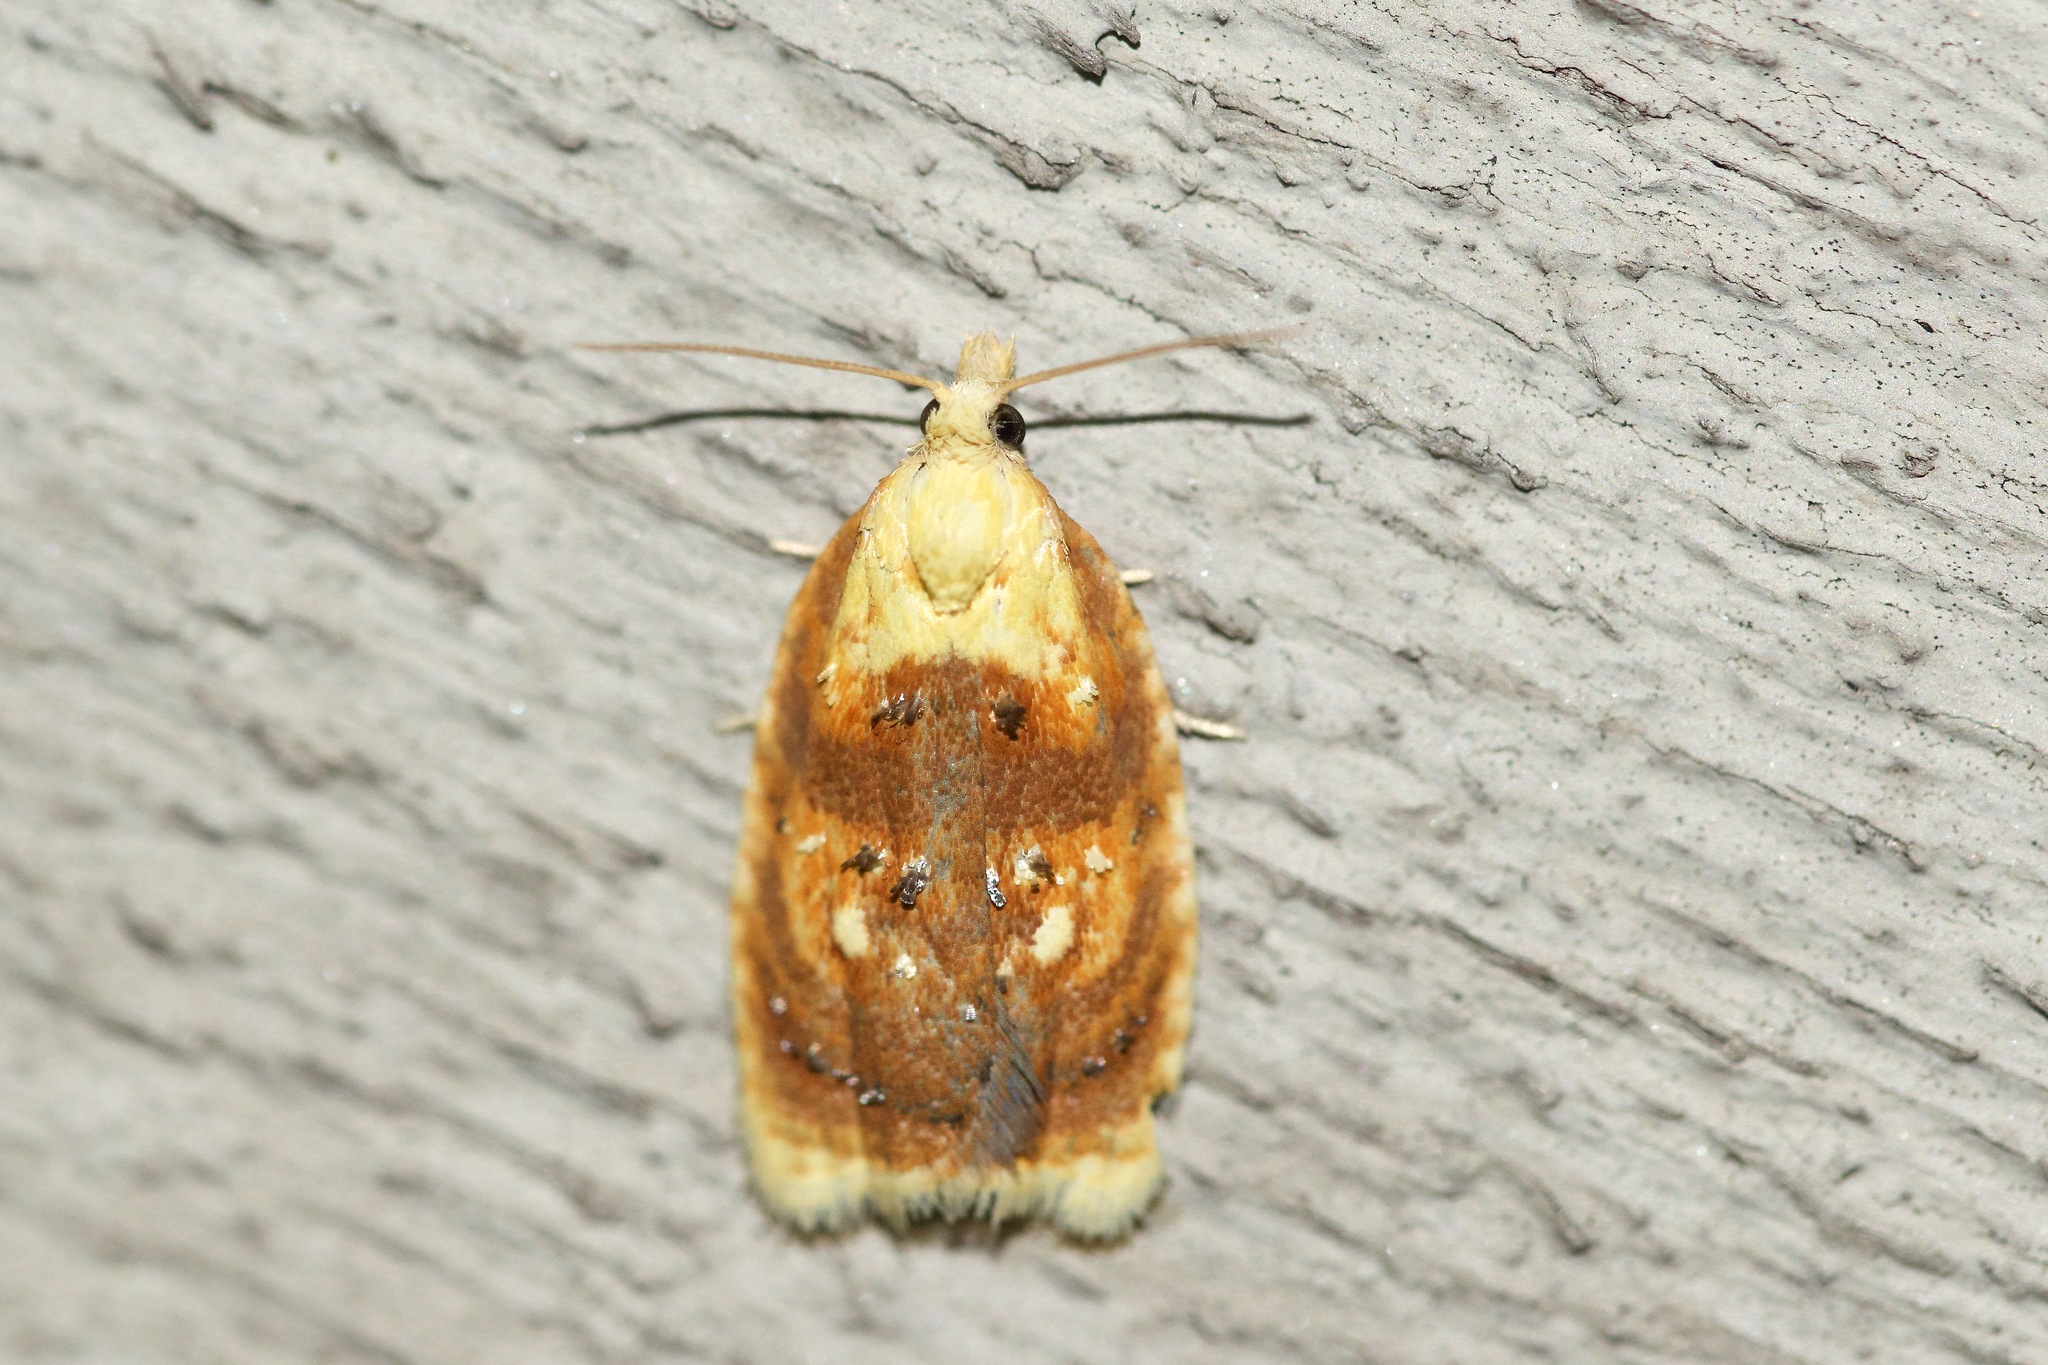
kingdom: Animalia
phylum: Arthropoda
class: Insecta
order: Lepidoptera
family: Tortricidae
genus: Acleris
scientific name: Acleris curvalana
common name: Blueberry leaftier moth
